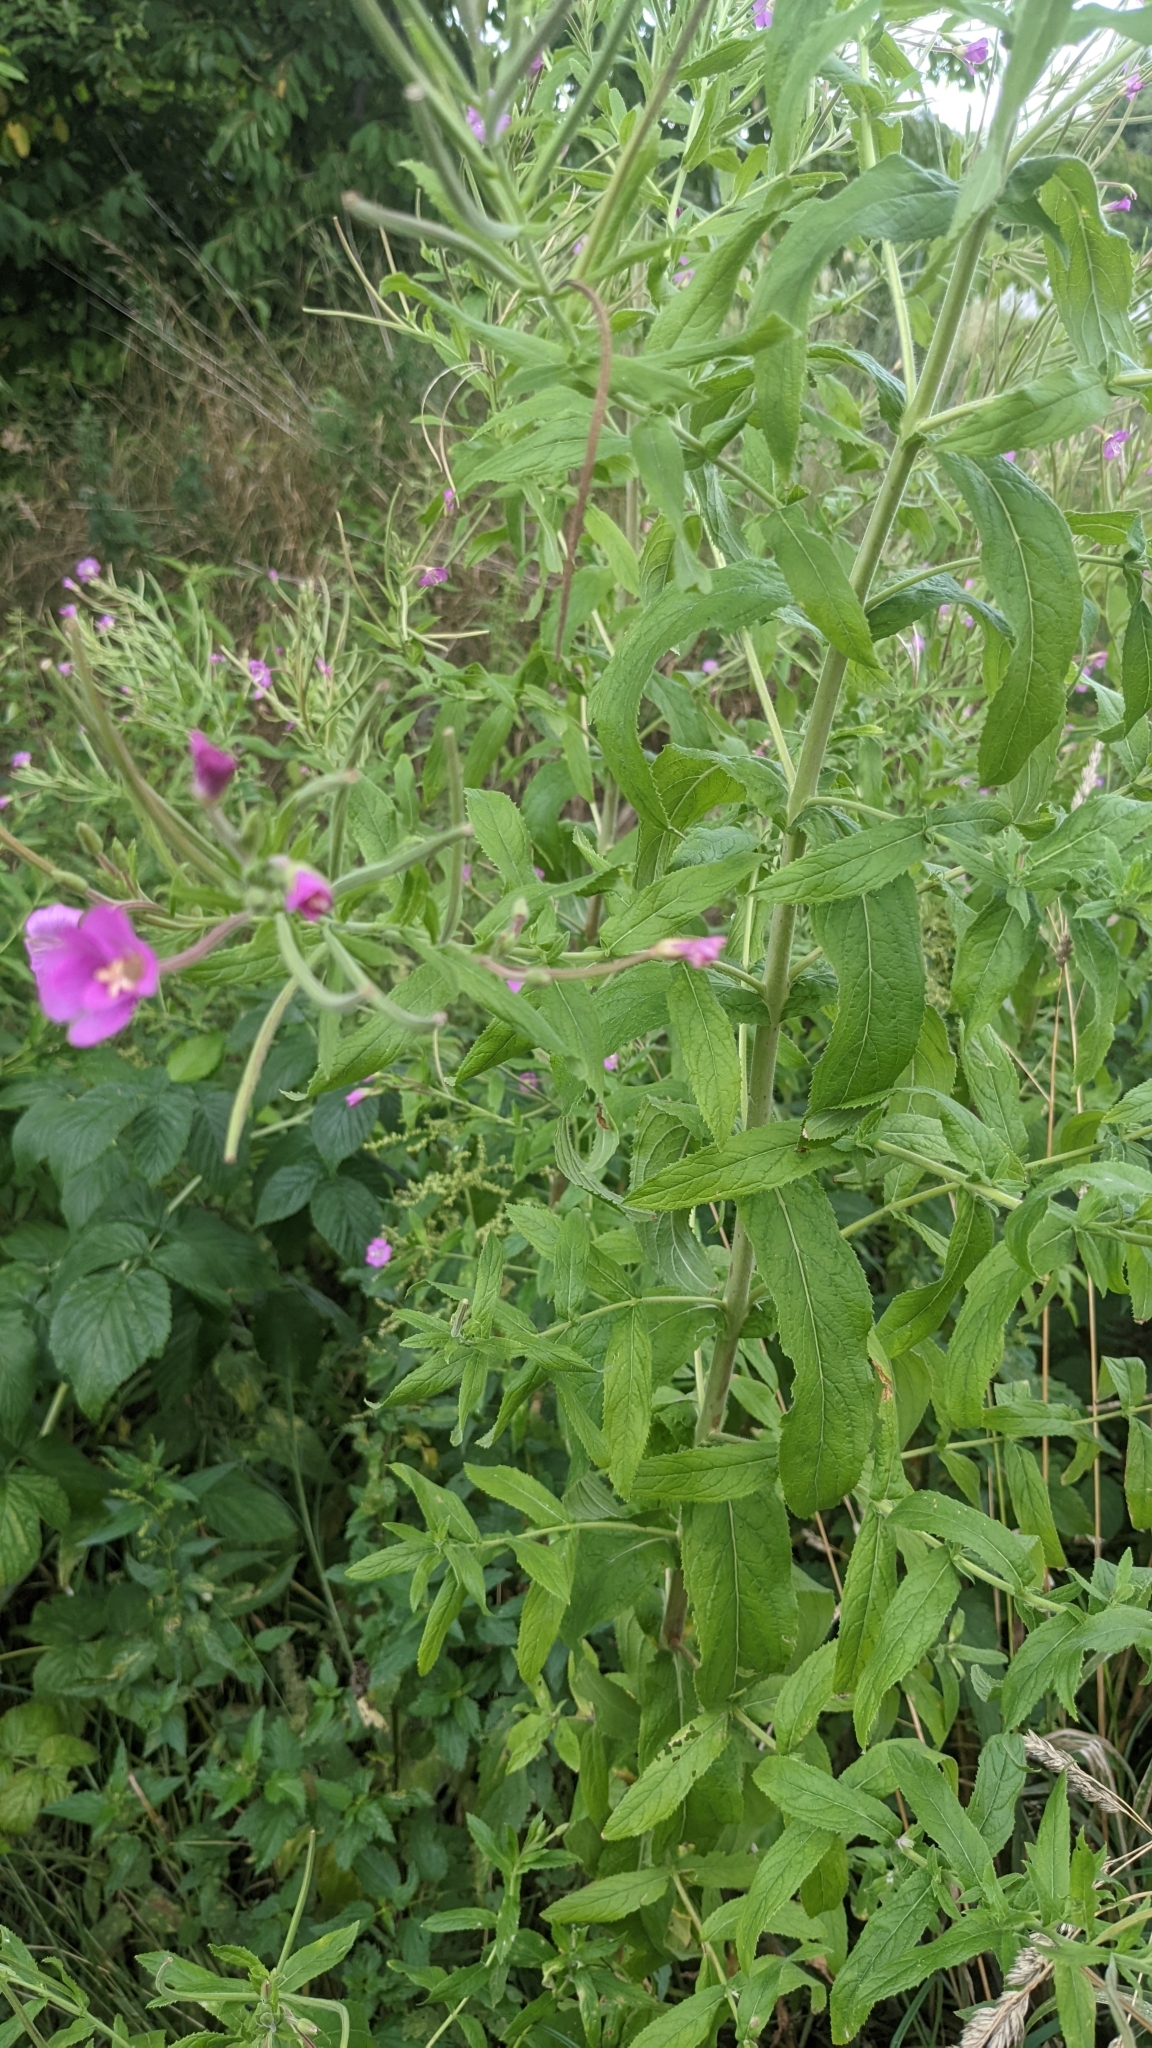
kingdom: Plantae
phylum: Tracheophyta
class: Magnoliopsida
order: Myrtales
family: Onagraceae
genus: Epilobium
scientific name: Epilobium hirsutum
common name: Great willowherb
